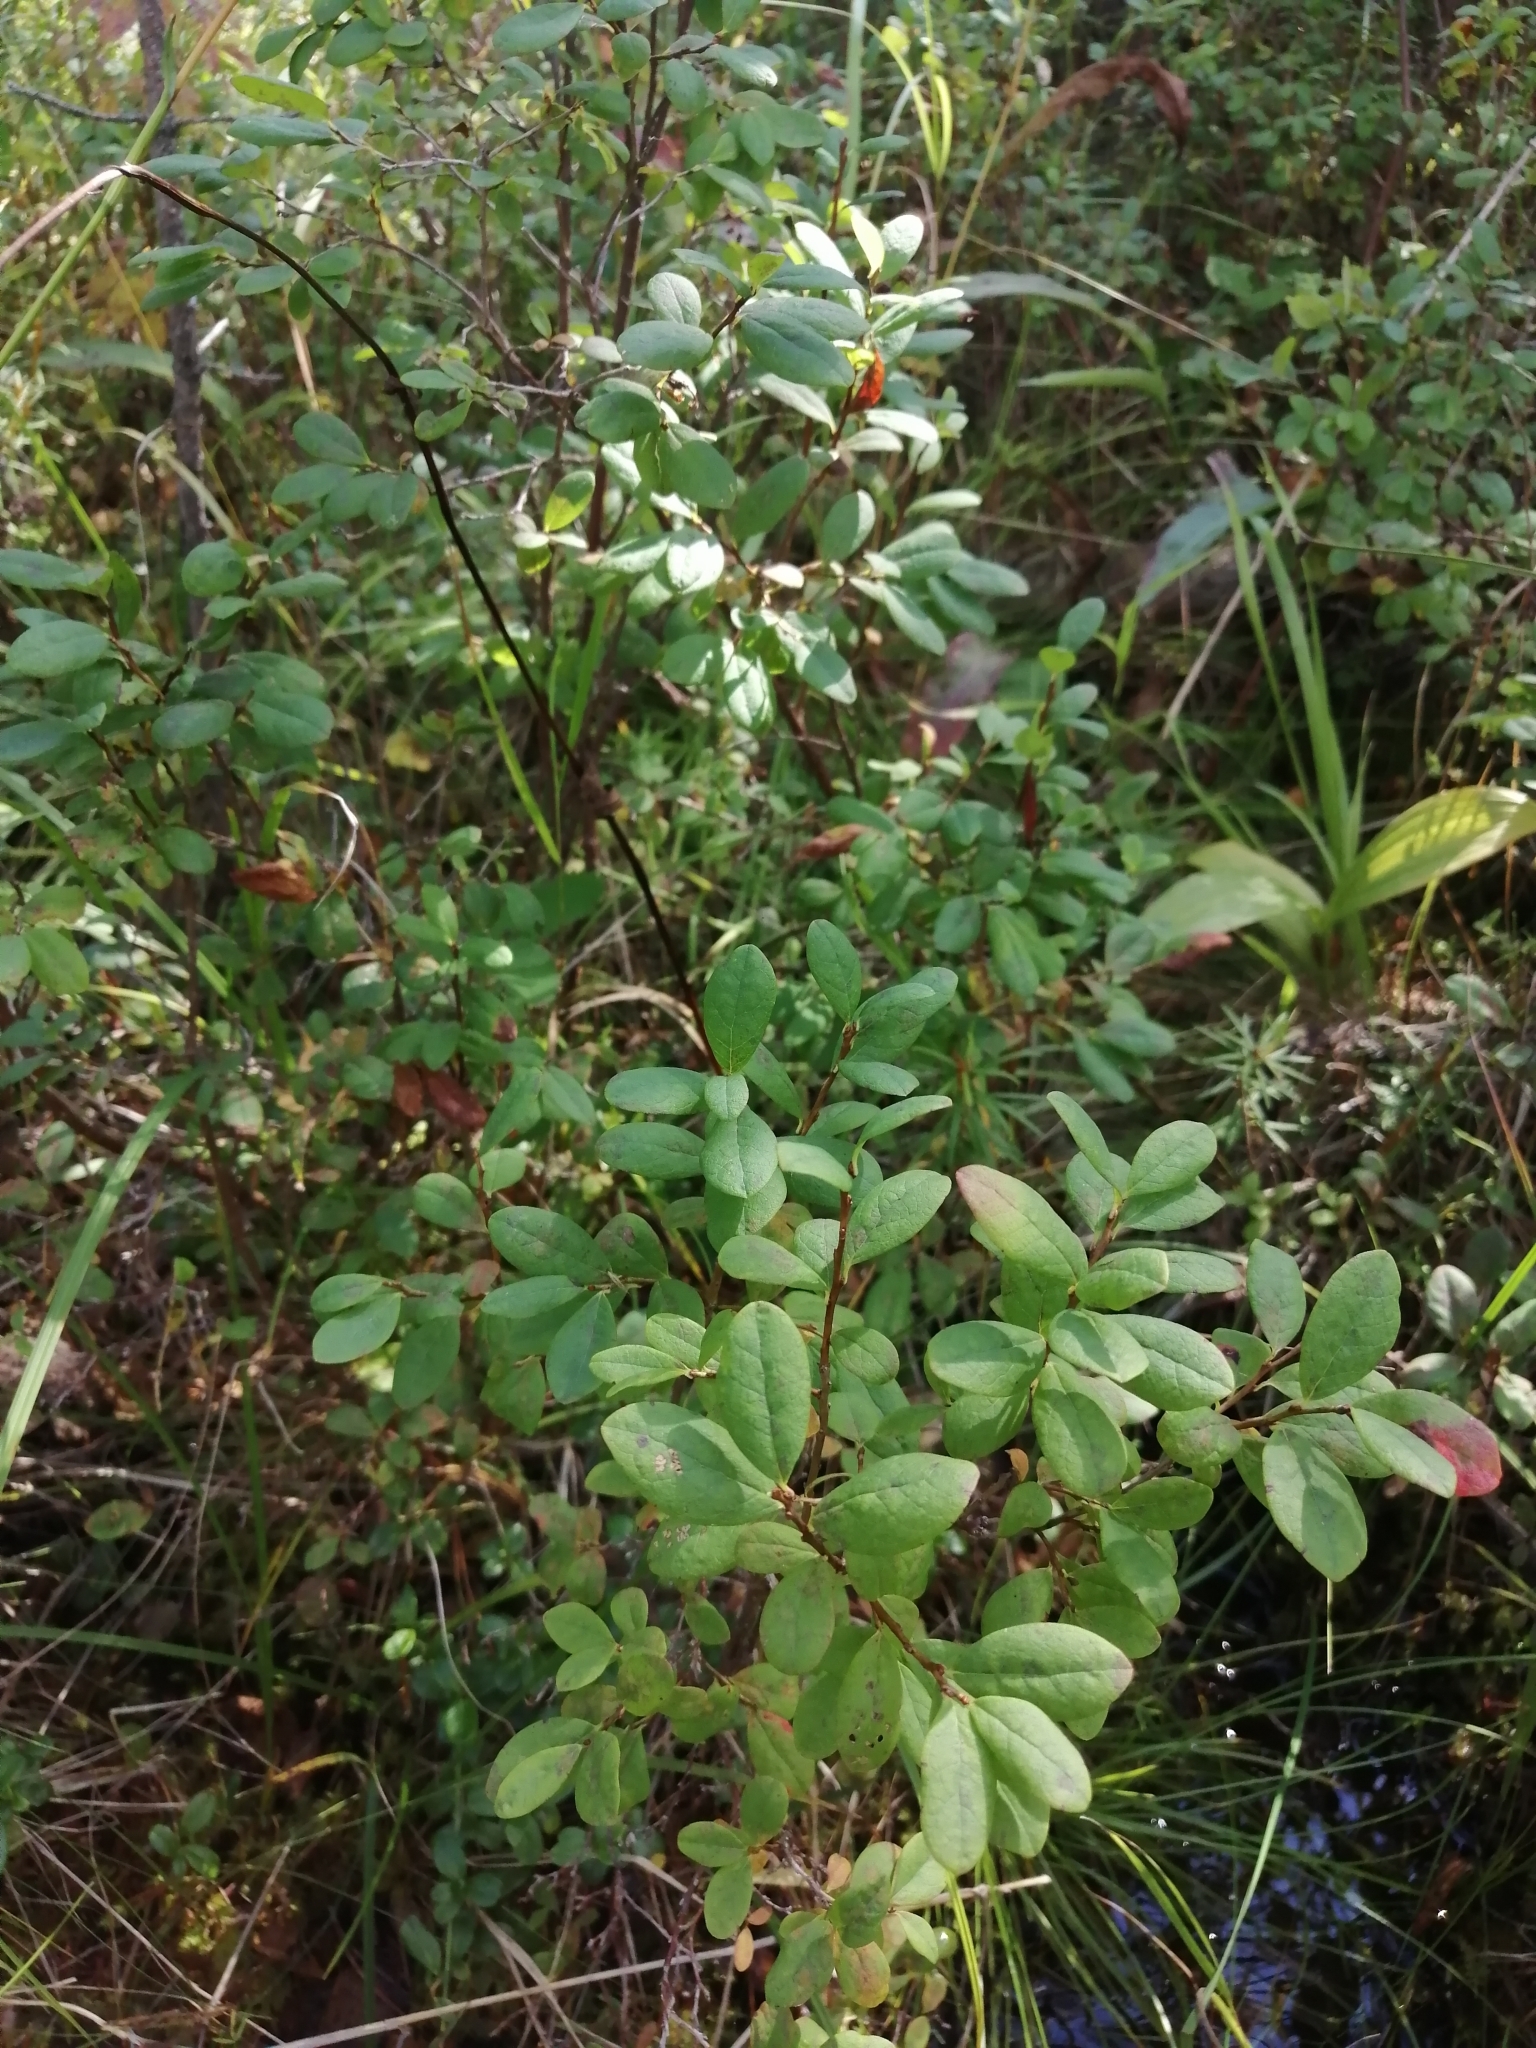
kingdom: Plantae
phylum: Tracheophyta
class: Magnoliopsida
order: Ericales
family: Ericaceae
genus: Vaccinium
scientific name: Vaccinium uliginosum
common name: Bog bilberry
